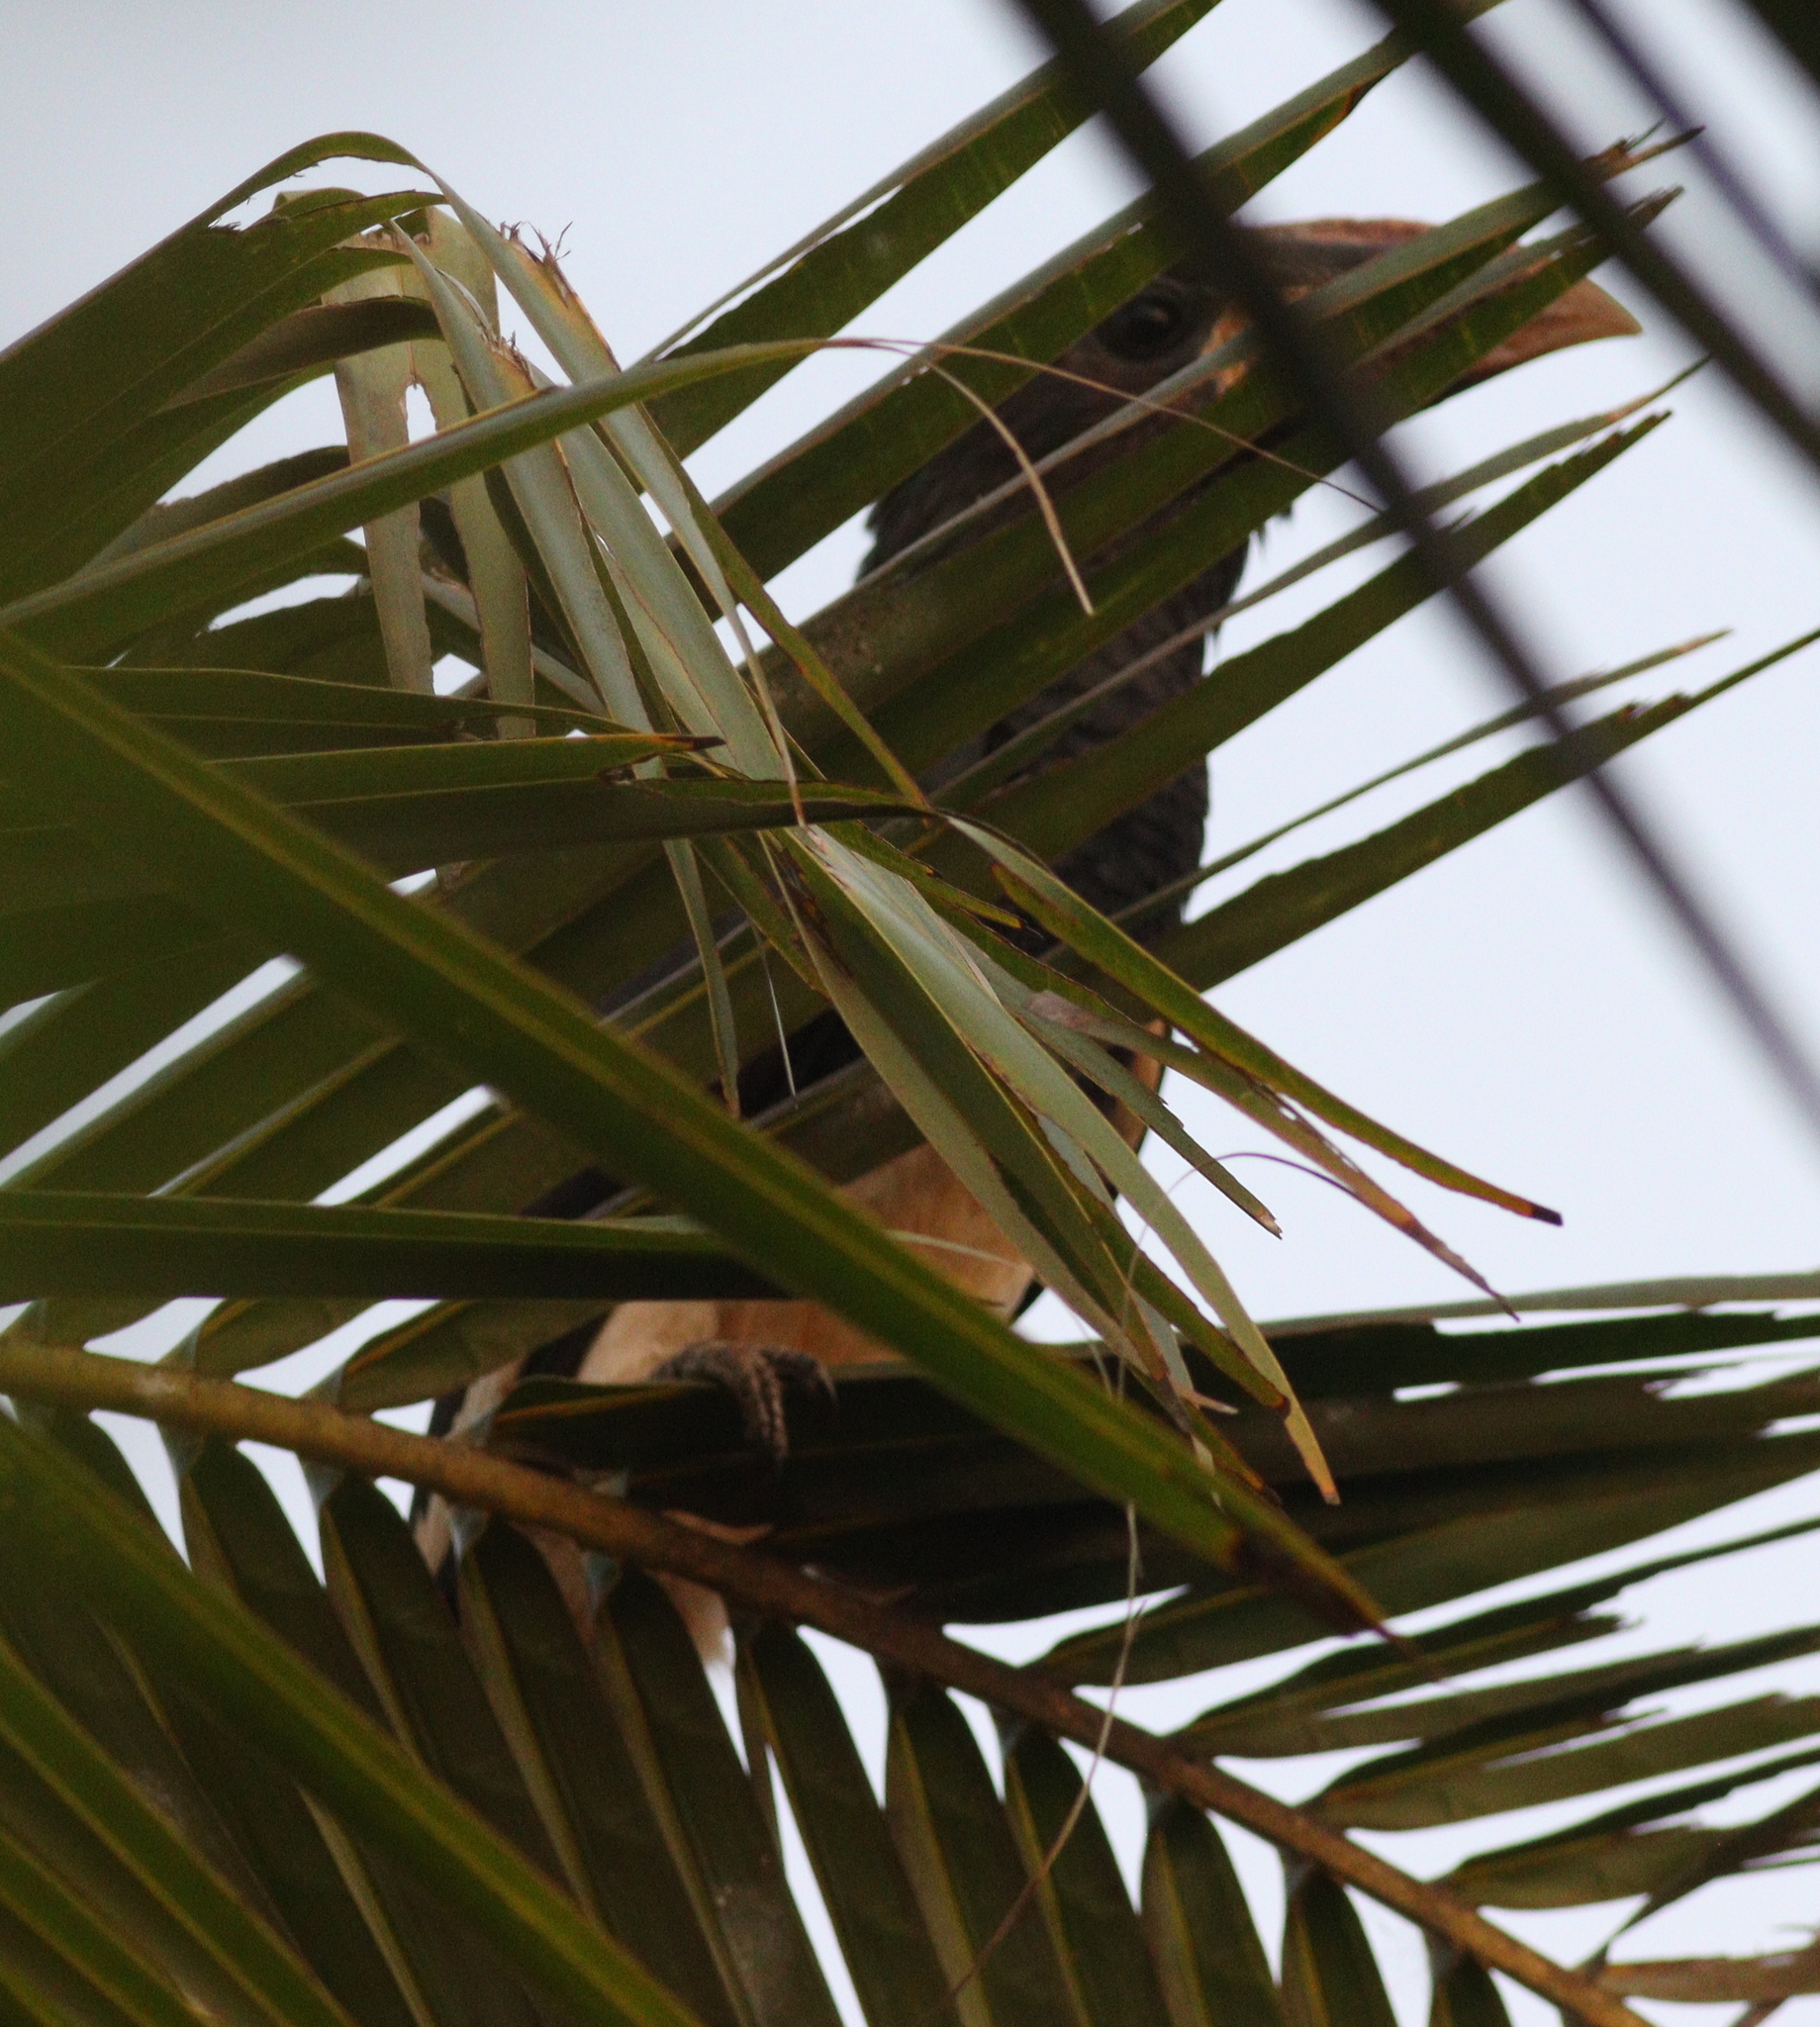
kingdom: Animalia
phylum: Chordata
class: Aves
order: Bucerotiformes
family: Bucerotidae
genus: Bycanistes
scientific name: Bycanistes fistulator
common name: Piping hornbill
